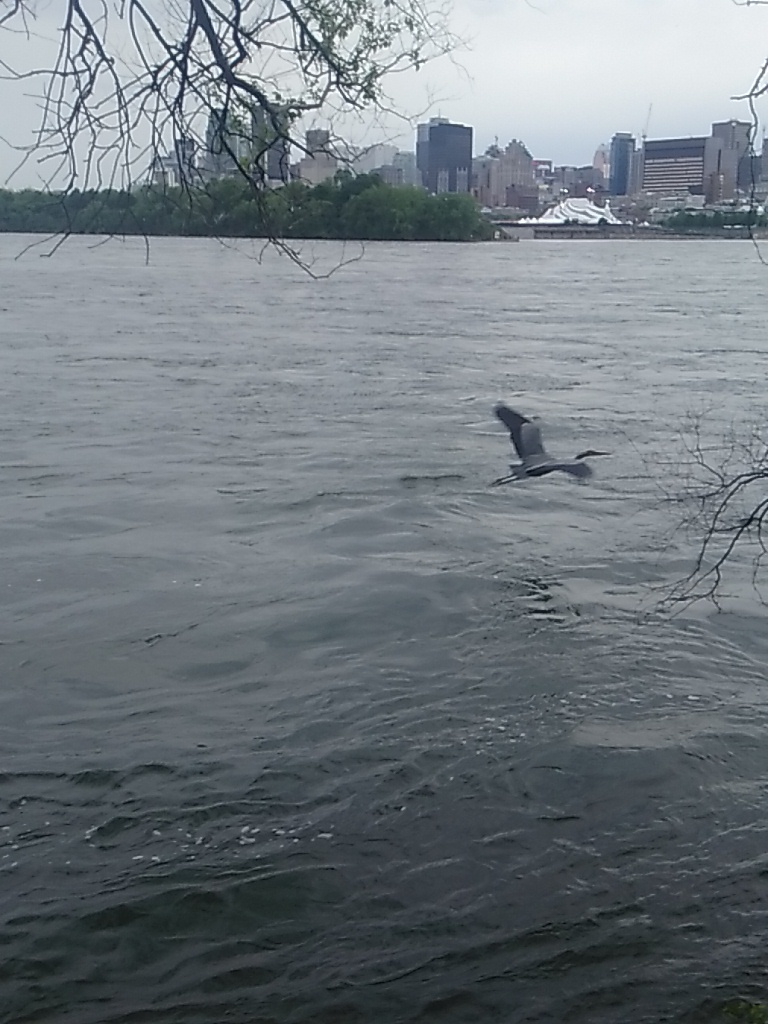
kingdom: Animalia
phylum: Chordata
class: Aves
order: Pelecaniformes
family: Ardeidae
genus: Ardea
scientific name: Ardea herodias
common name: Great blue heron
